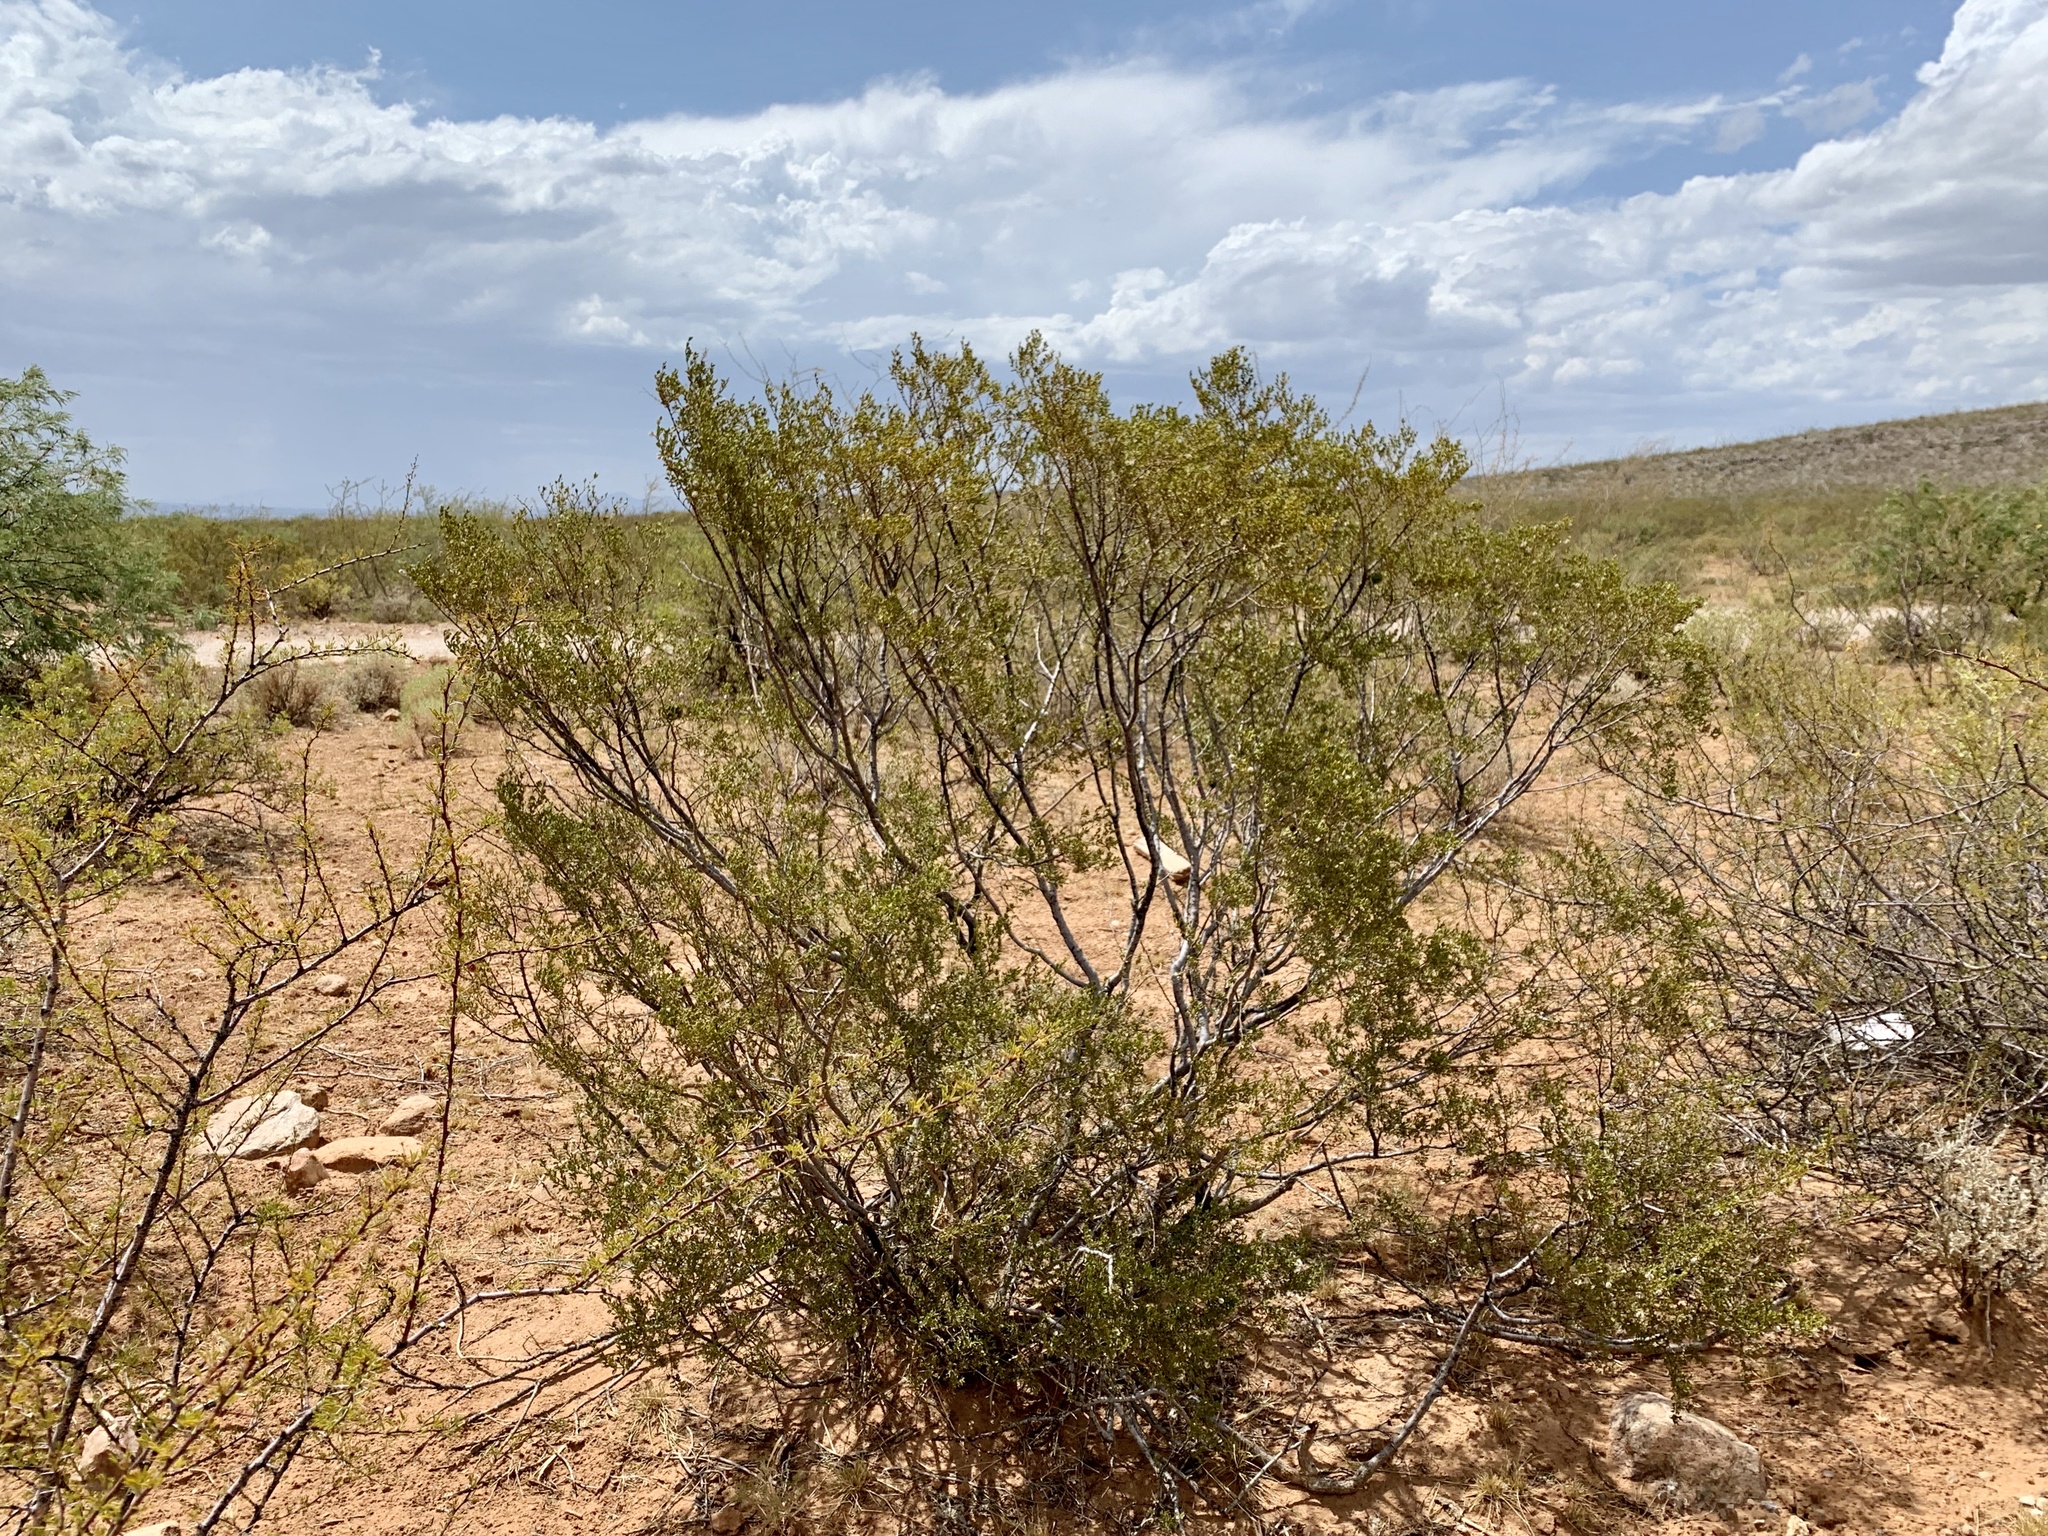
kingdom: Plantae
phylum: Tracheophyta
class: Magnoliopsida
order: Zygophyllales
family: Zygophyllaceae
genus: Larrea
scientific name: Larrea tridentata
